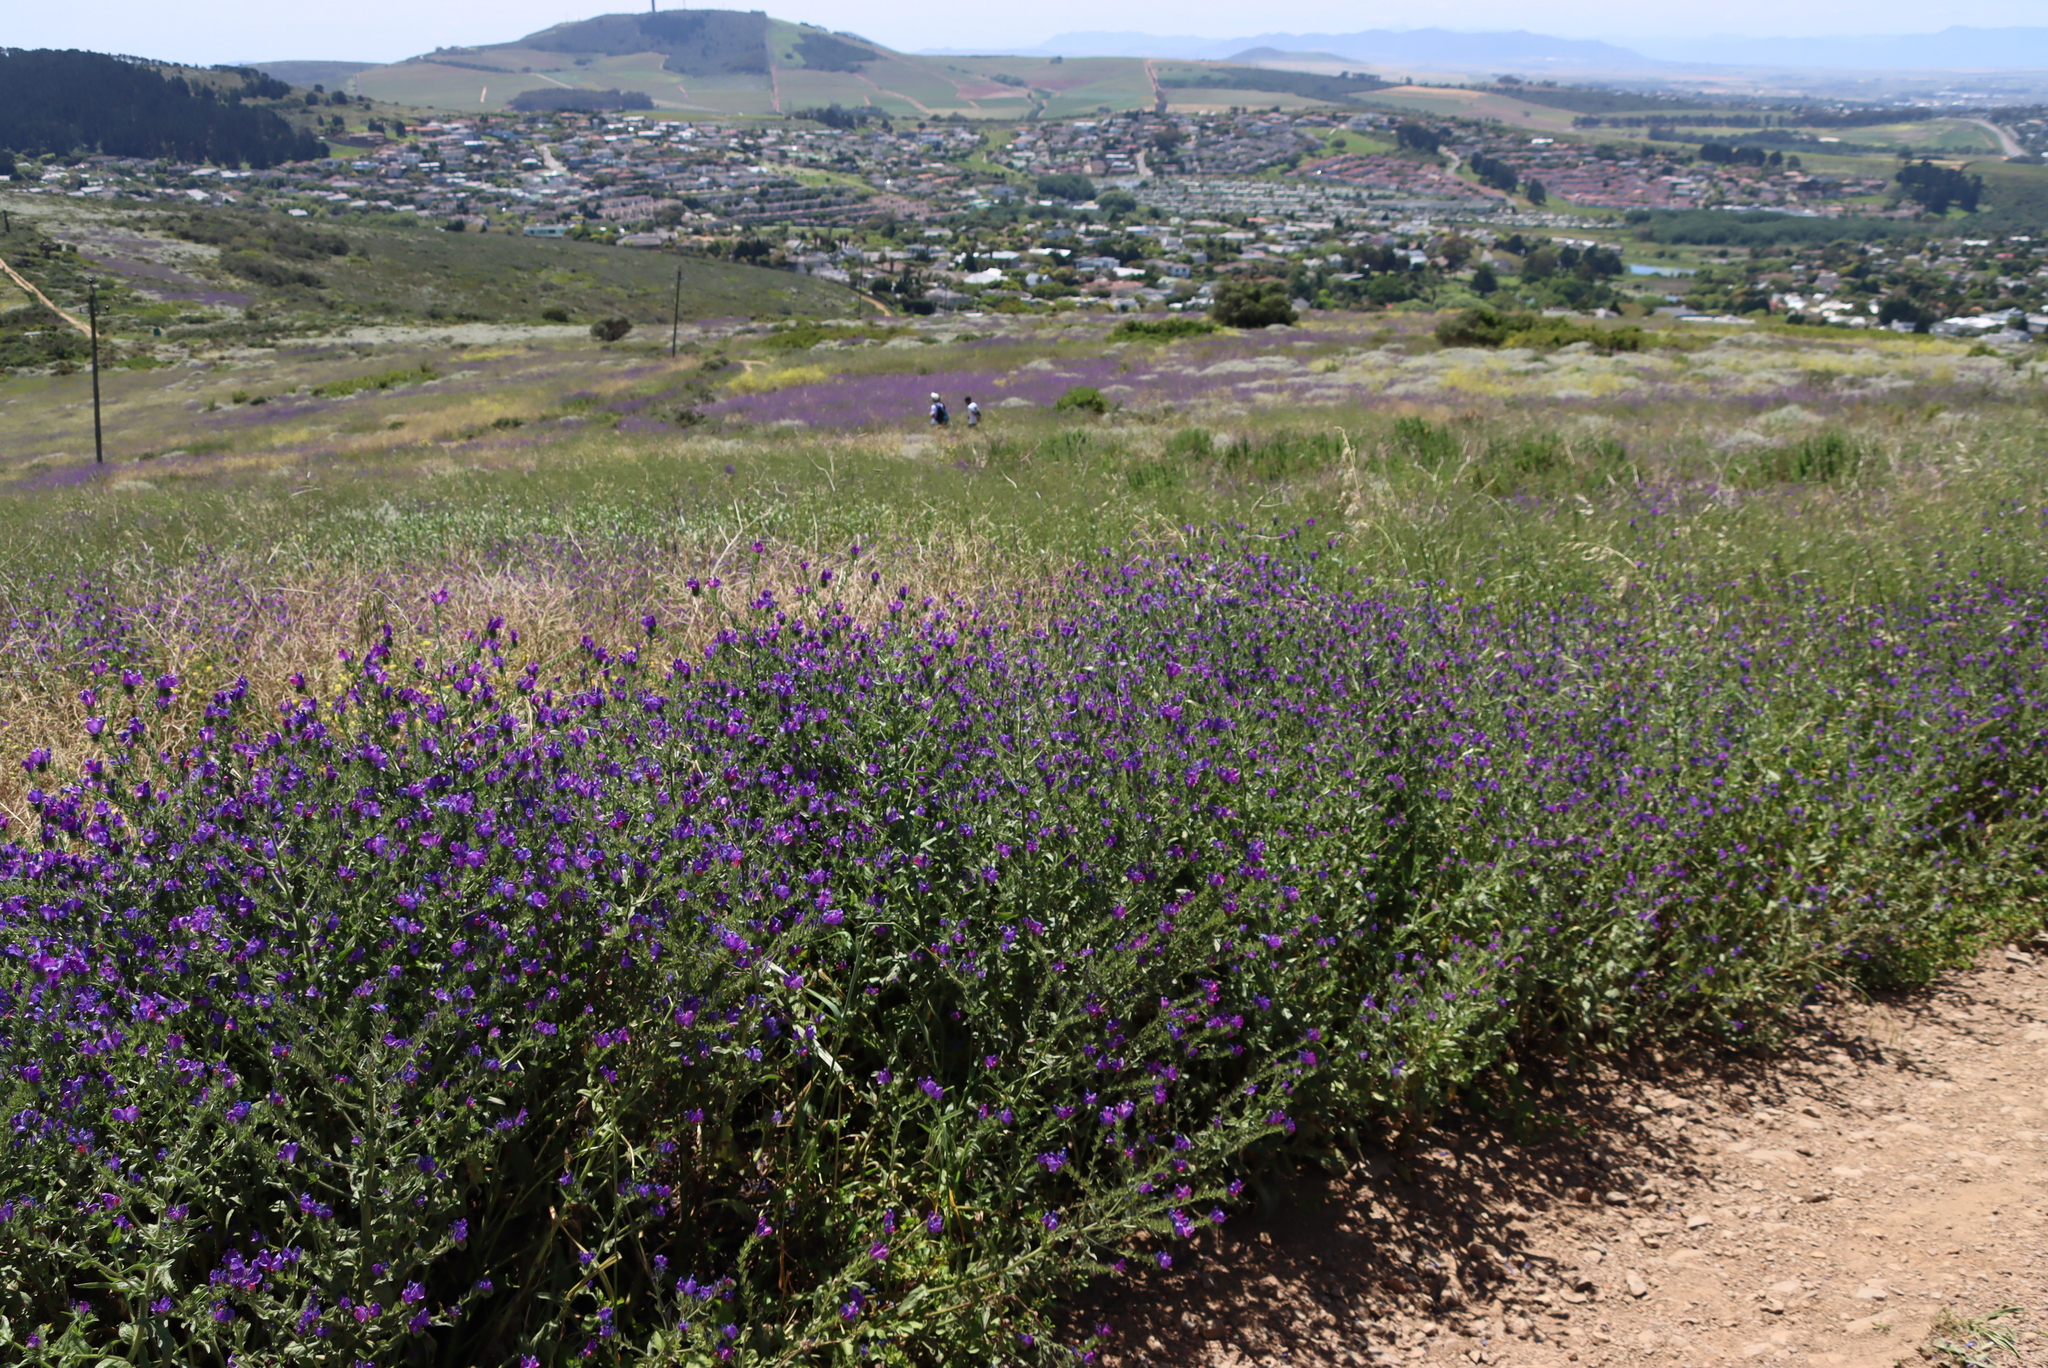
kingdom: Plantae
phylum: Tracheophyta
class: Magnoliopsida
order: Boraginales
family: Boraginaceae
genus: Echium
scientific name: Echium plantagineum
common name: Purple viper's-bugloss
